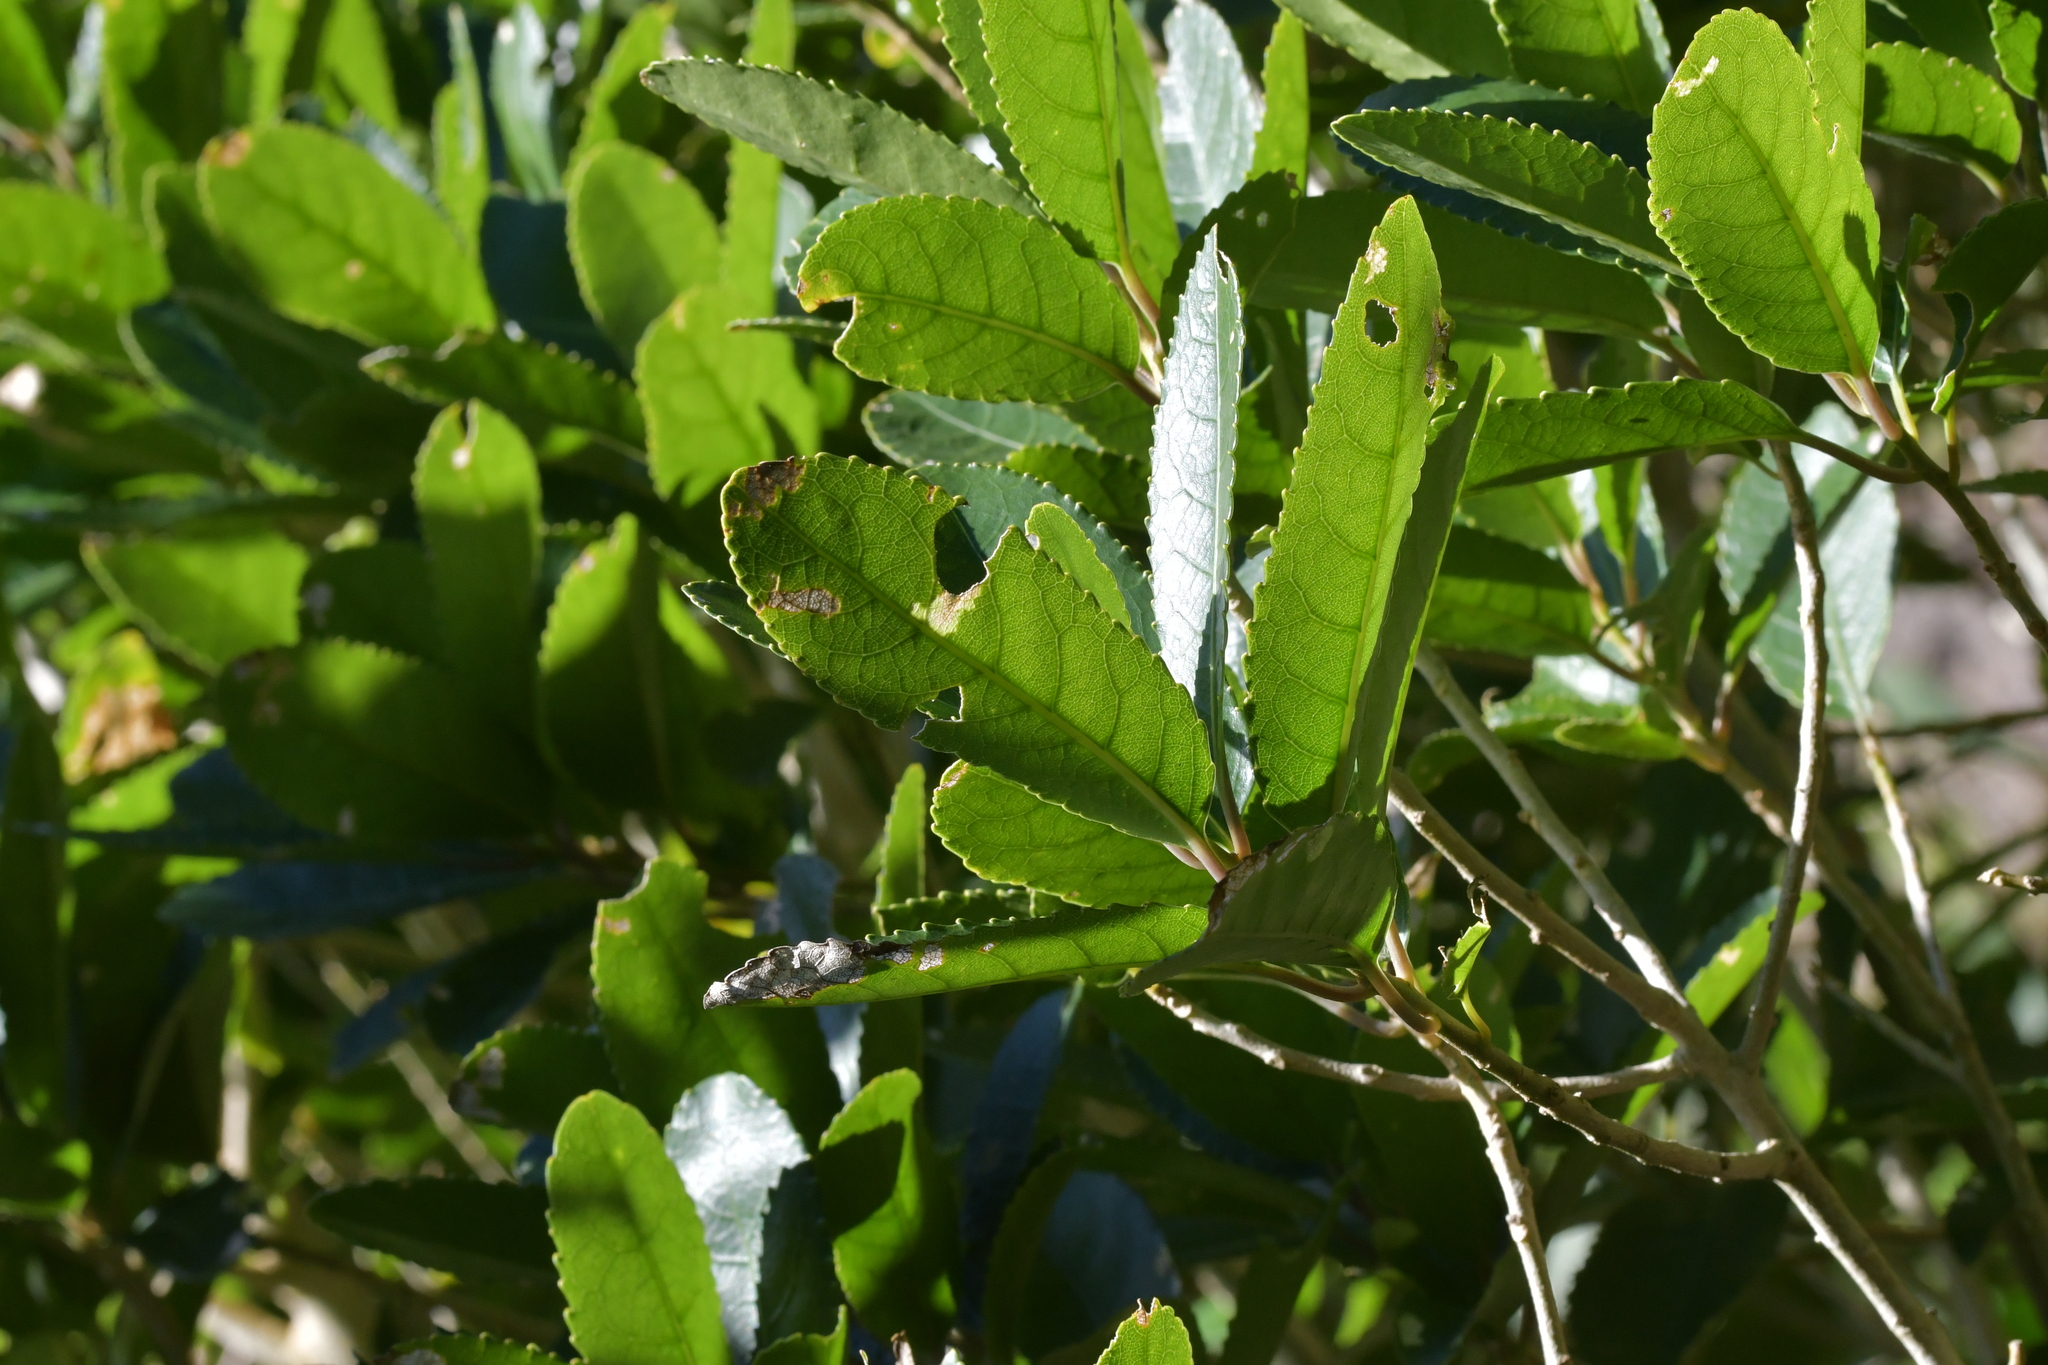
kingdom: Plantae
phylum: Tracheophyta
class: Magnoliopsida
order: Malpighiales
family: Violaceae
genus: Melicytus
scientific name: Melicytus ramiflorus
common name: Mahoe
